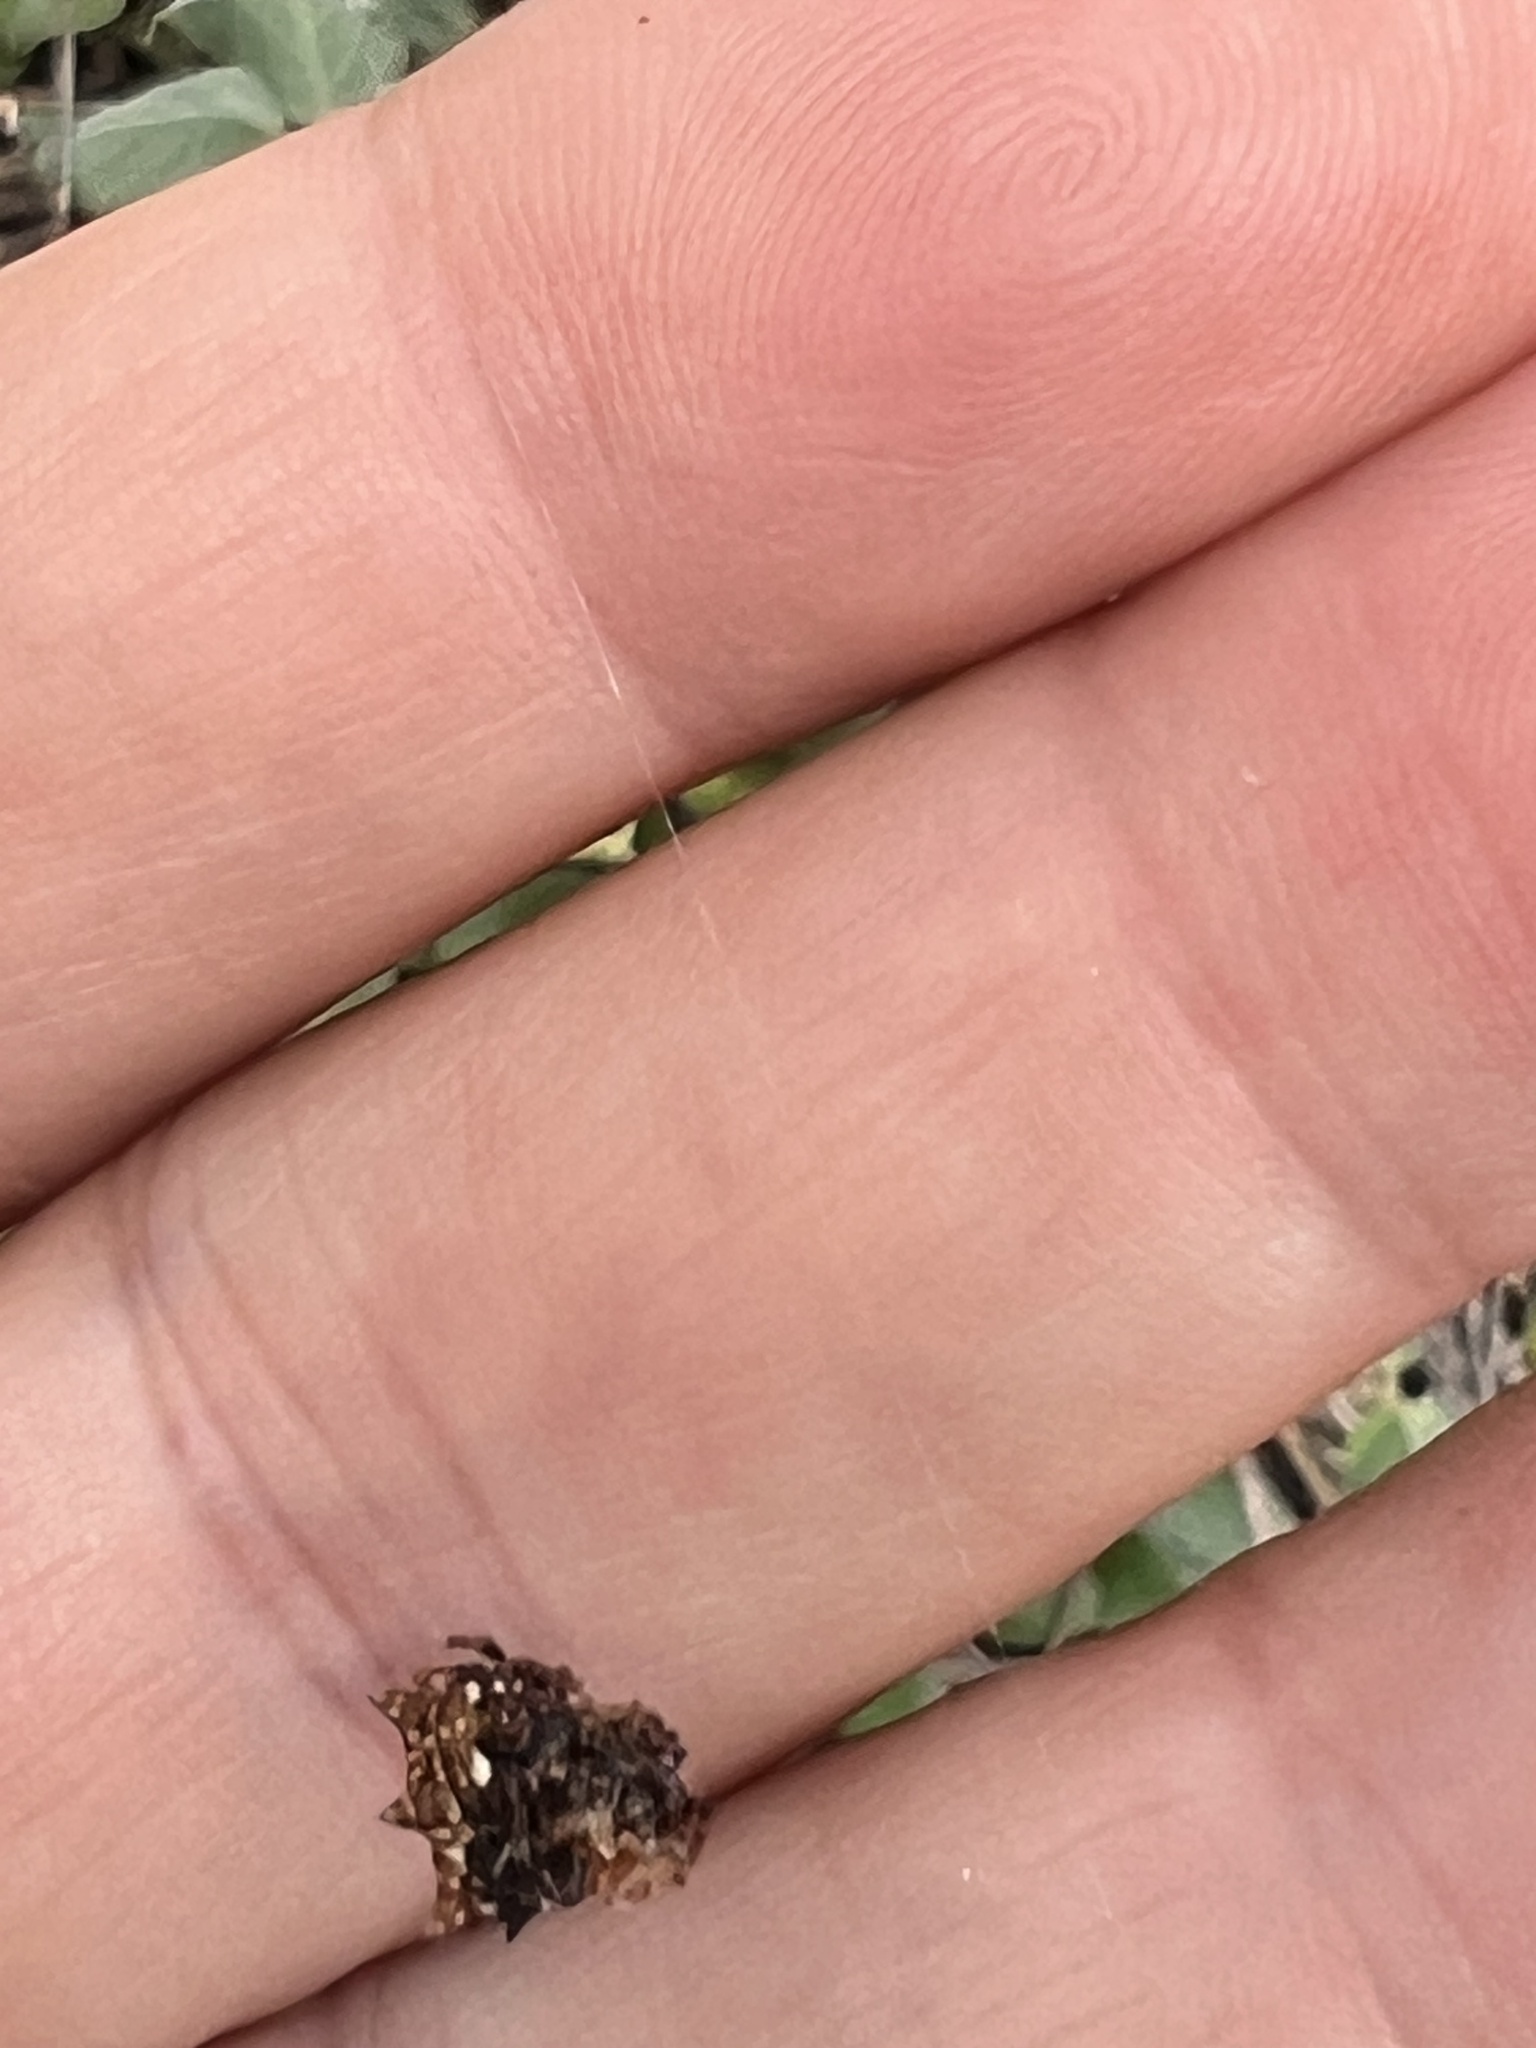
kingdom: Animalia
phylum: Arthropoda
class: Arachnida
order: Araneae
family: Araneidae
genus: Thelacantha
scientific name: Thelacantha brevispina
